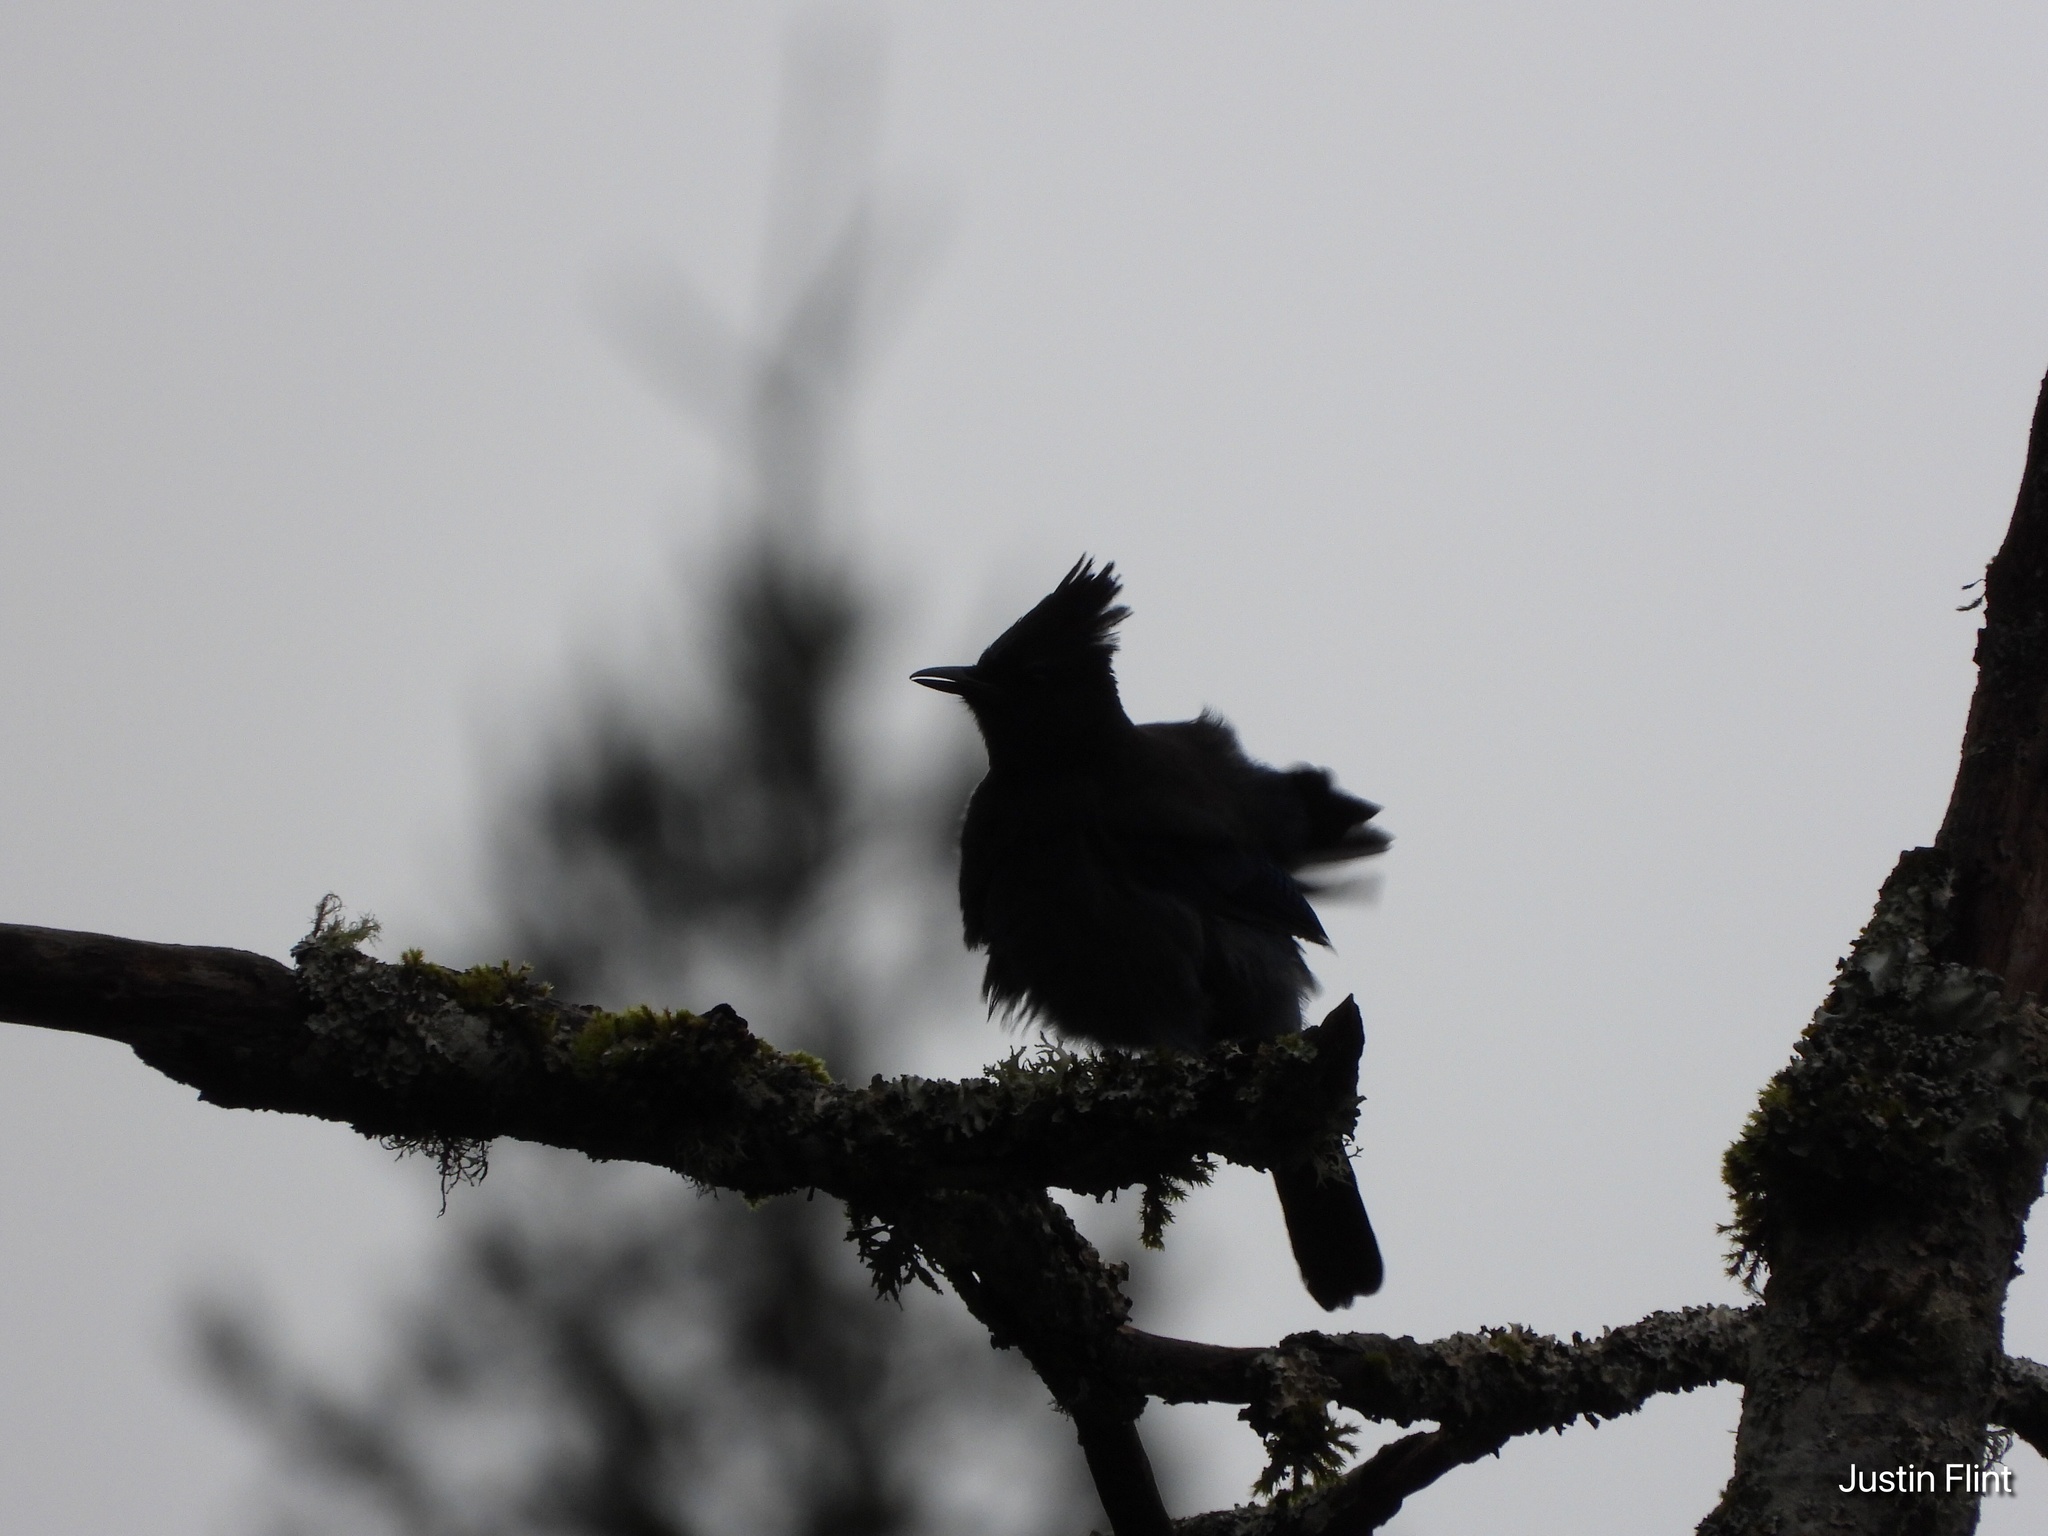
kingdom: Animalia
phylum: Chordata
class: Aves
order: Passeriformes
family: Corvidae
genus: Cyanocitta
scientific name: Cyanocitta stelleri
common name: Steller's jay
